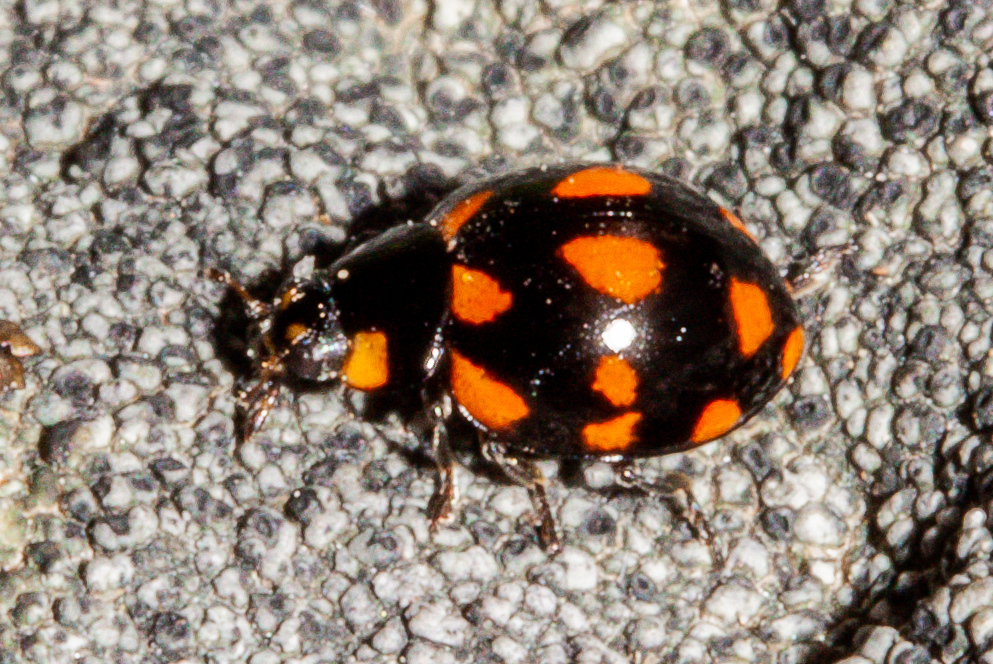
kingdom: Animalia
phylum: Arthropoda
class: Insecta
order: Coleoptera
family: Coccinellidae
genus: Coccinella
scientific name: Coccinella leonina
